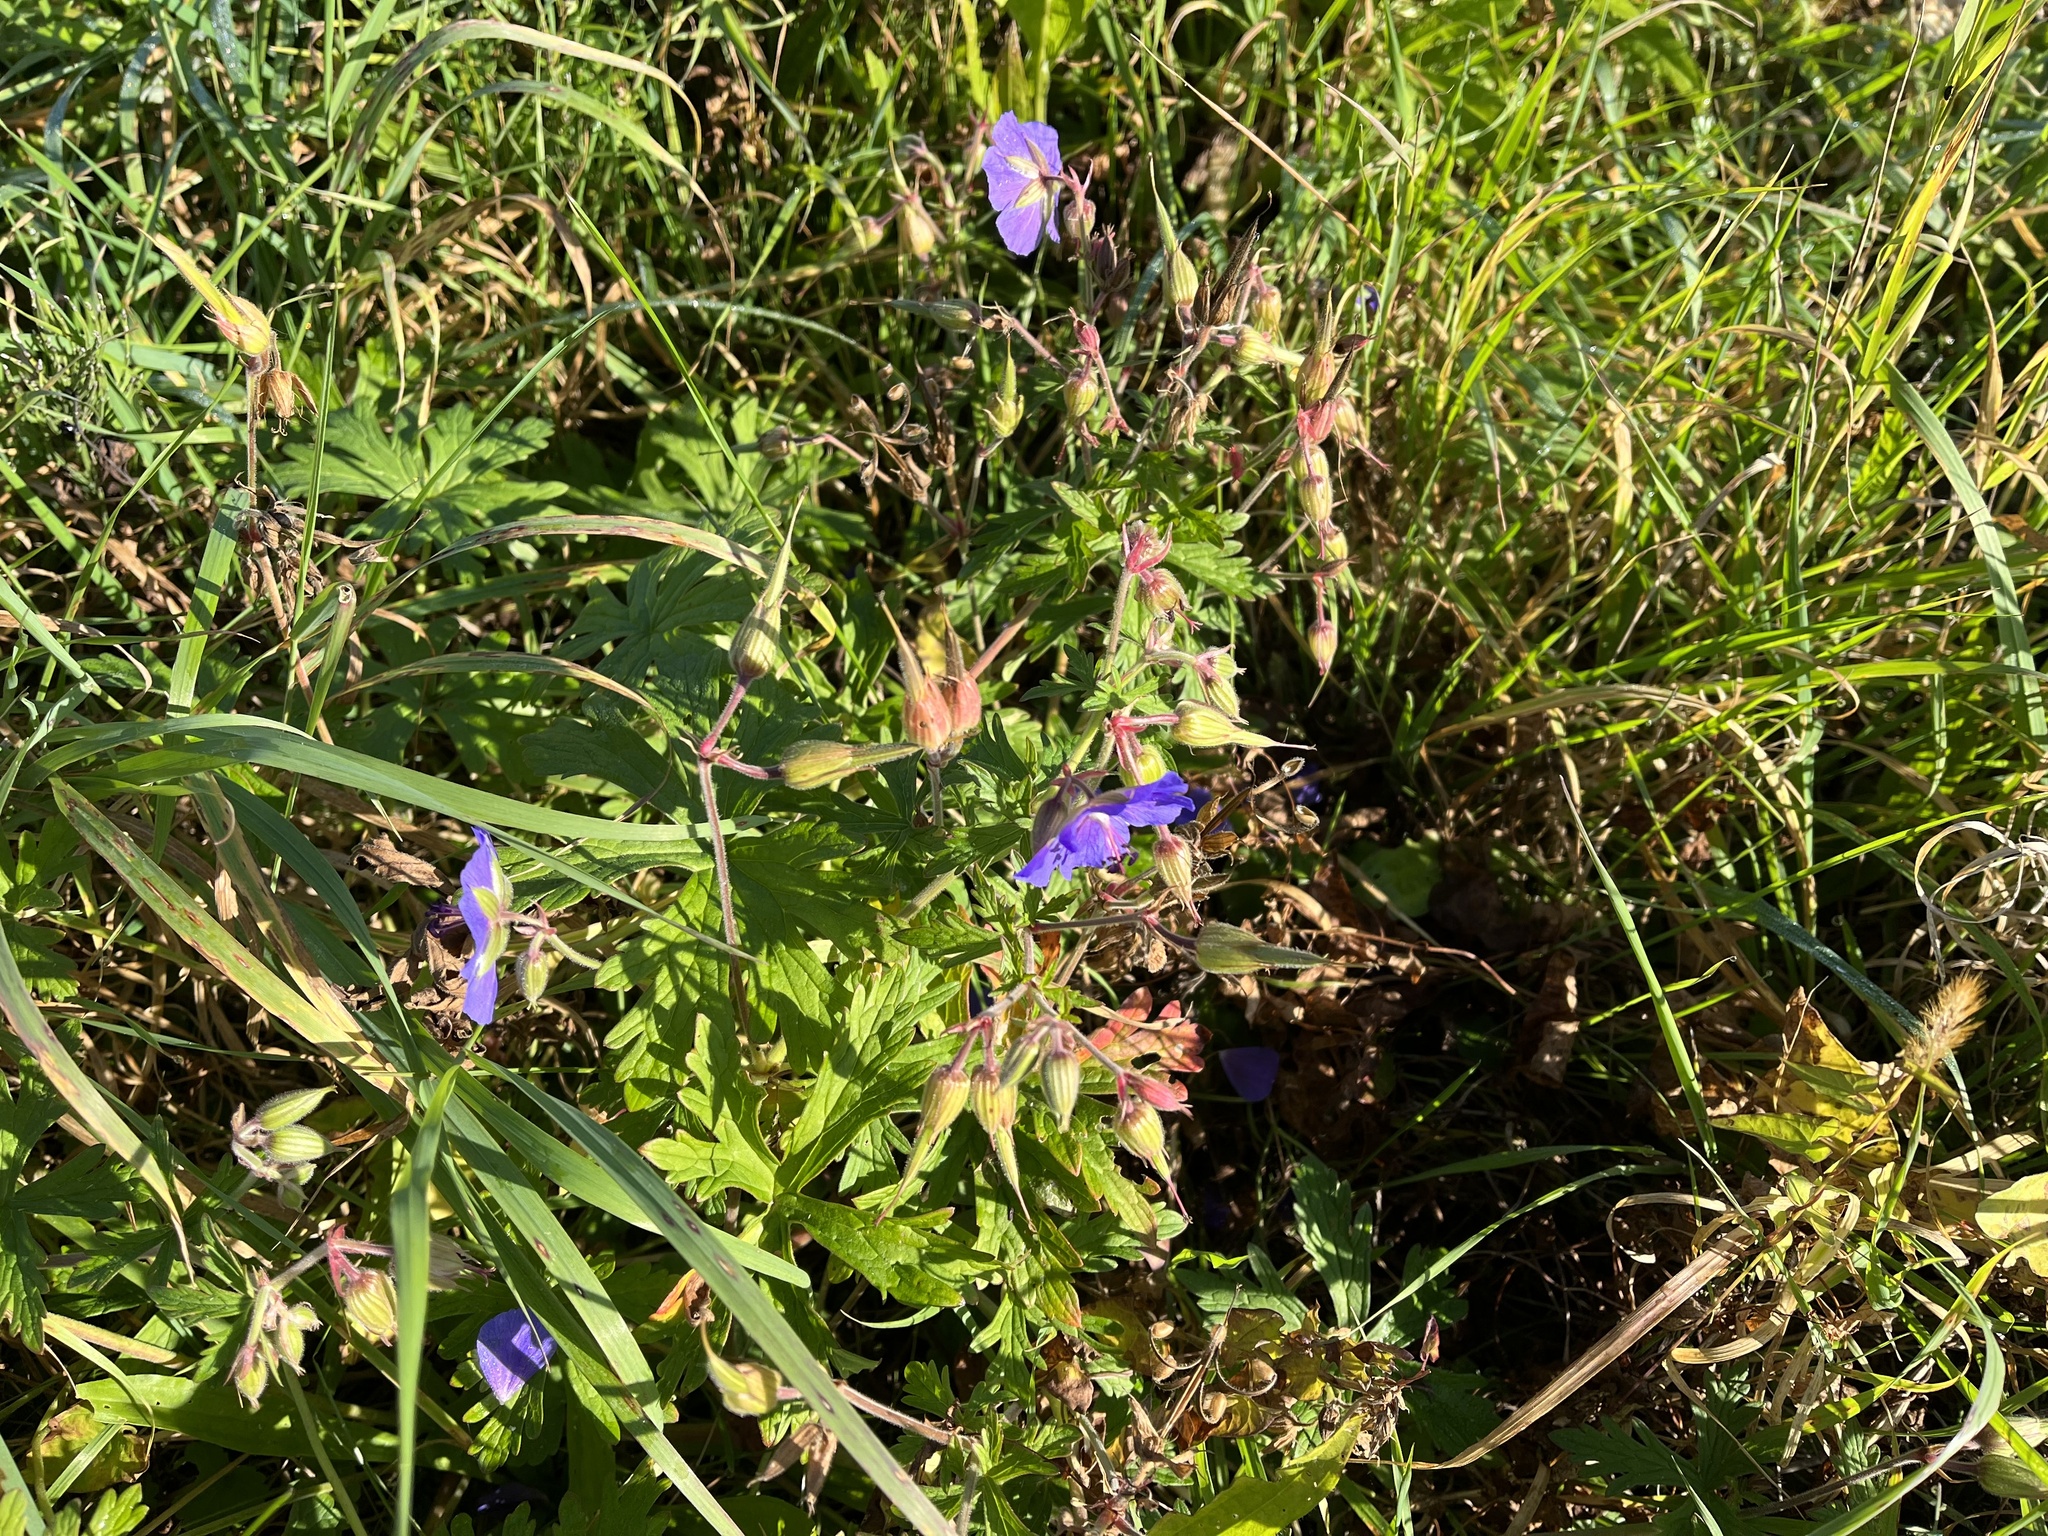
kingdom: Plantae
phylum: Tracheophyta
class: Magnoliopsida
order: Geraniales
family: Geraniaceae
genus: Geranium
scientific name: Geranium pratense
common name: Meadow crane's-bill
